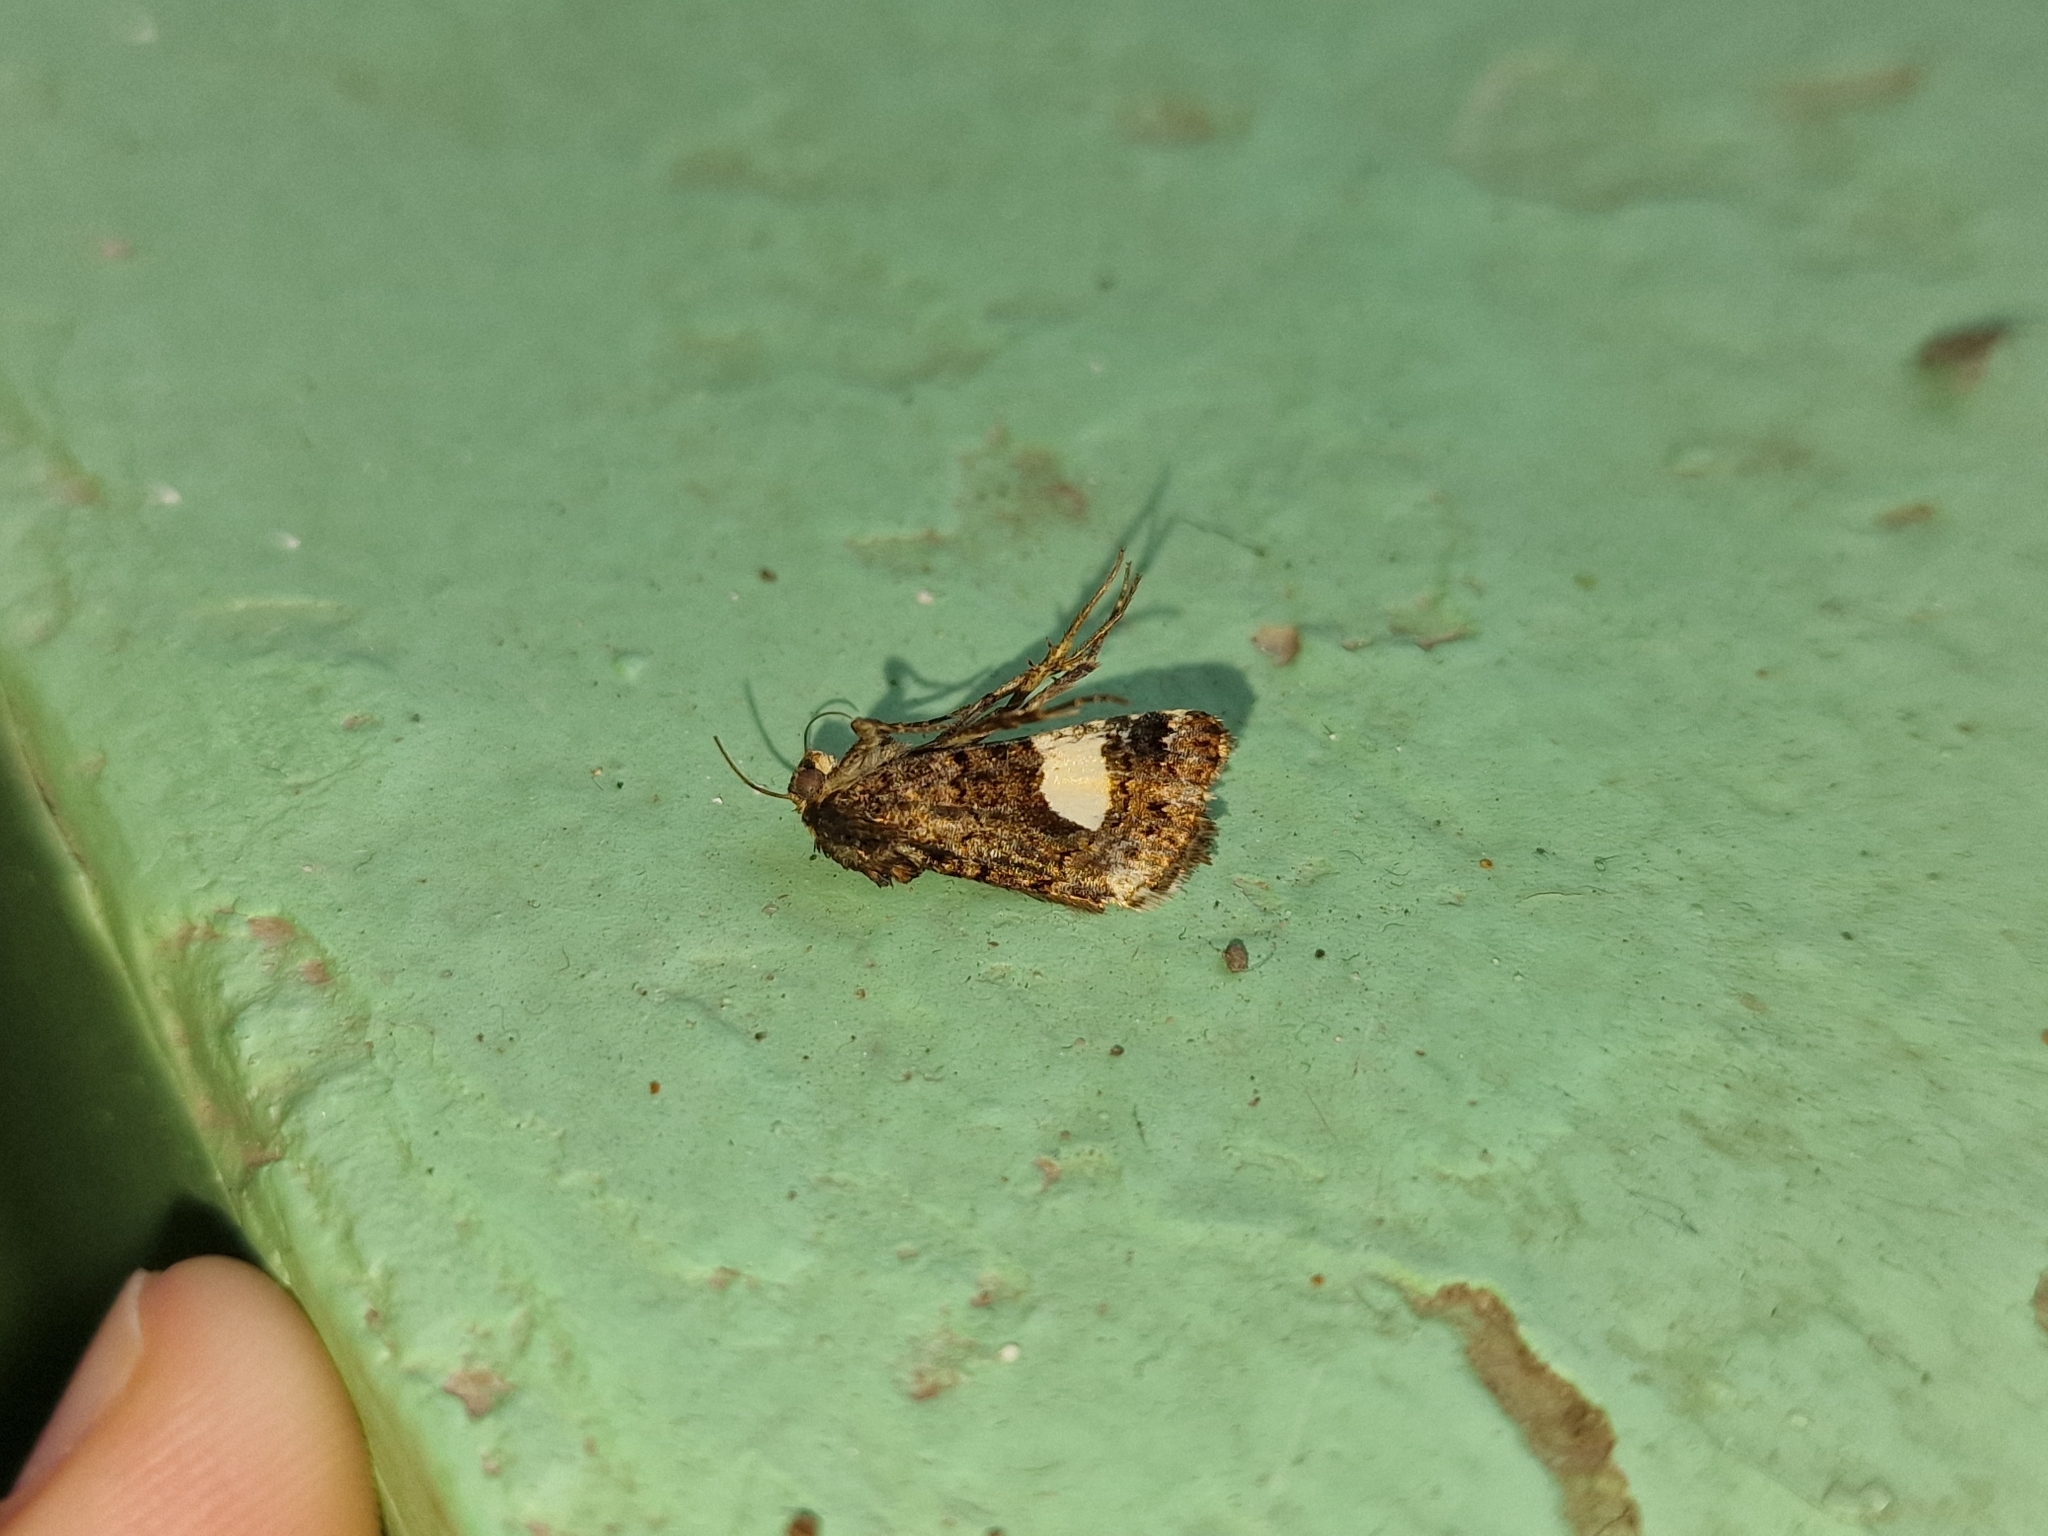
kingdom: Animalia
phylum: Arthropoda
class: Insecta
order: Lepidoptera
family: Erebidae
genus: Tyta
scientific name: Tyta luctuosa
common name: Four-spotted
